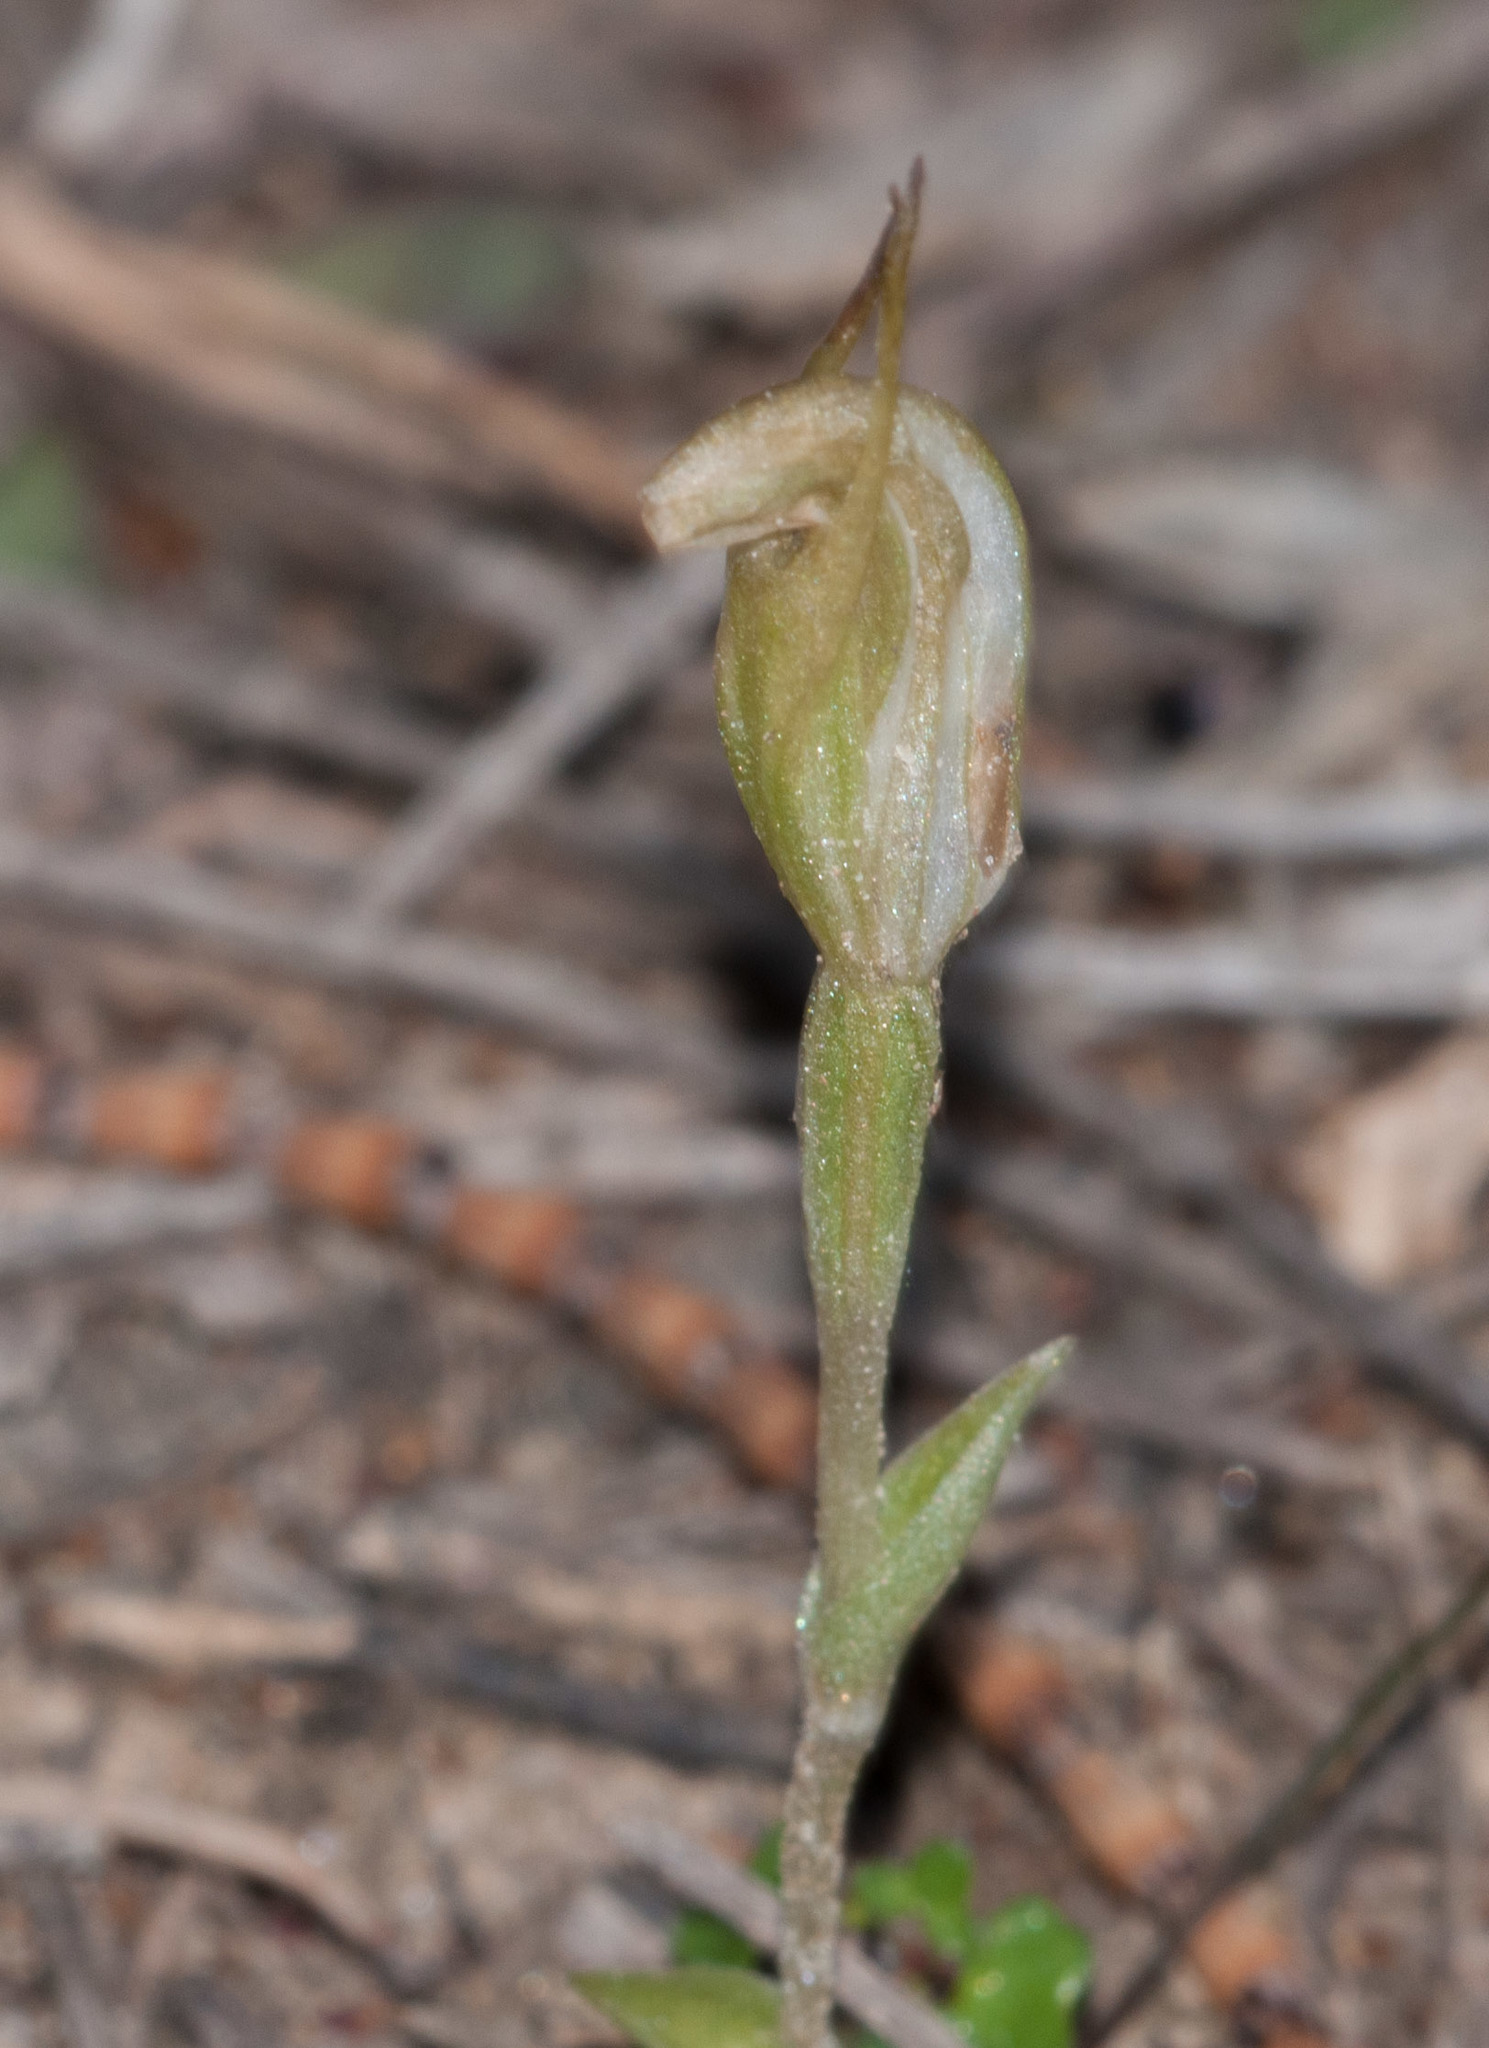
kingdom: Plantae
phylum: Tracheophyta
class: Liliopsida
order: Asparagales
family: Orchidaceae
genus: Pterostylis
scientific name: Pterostylis nana
